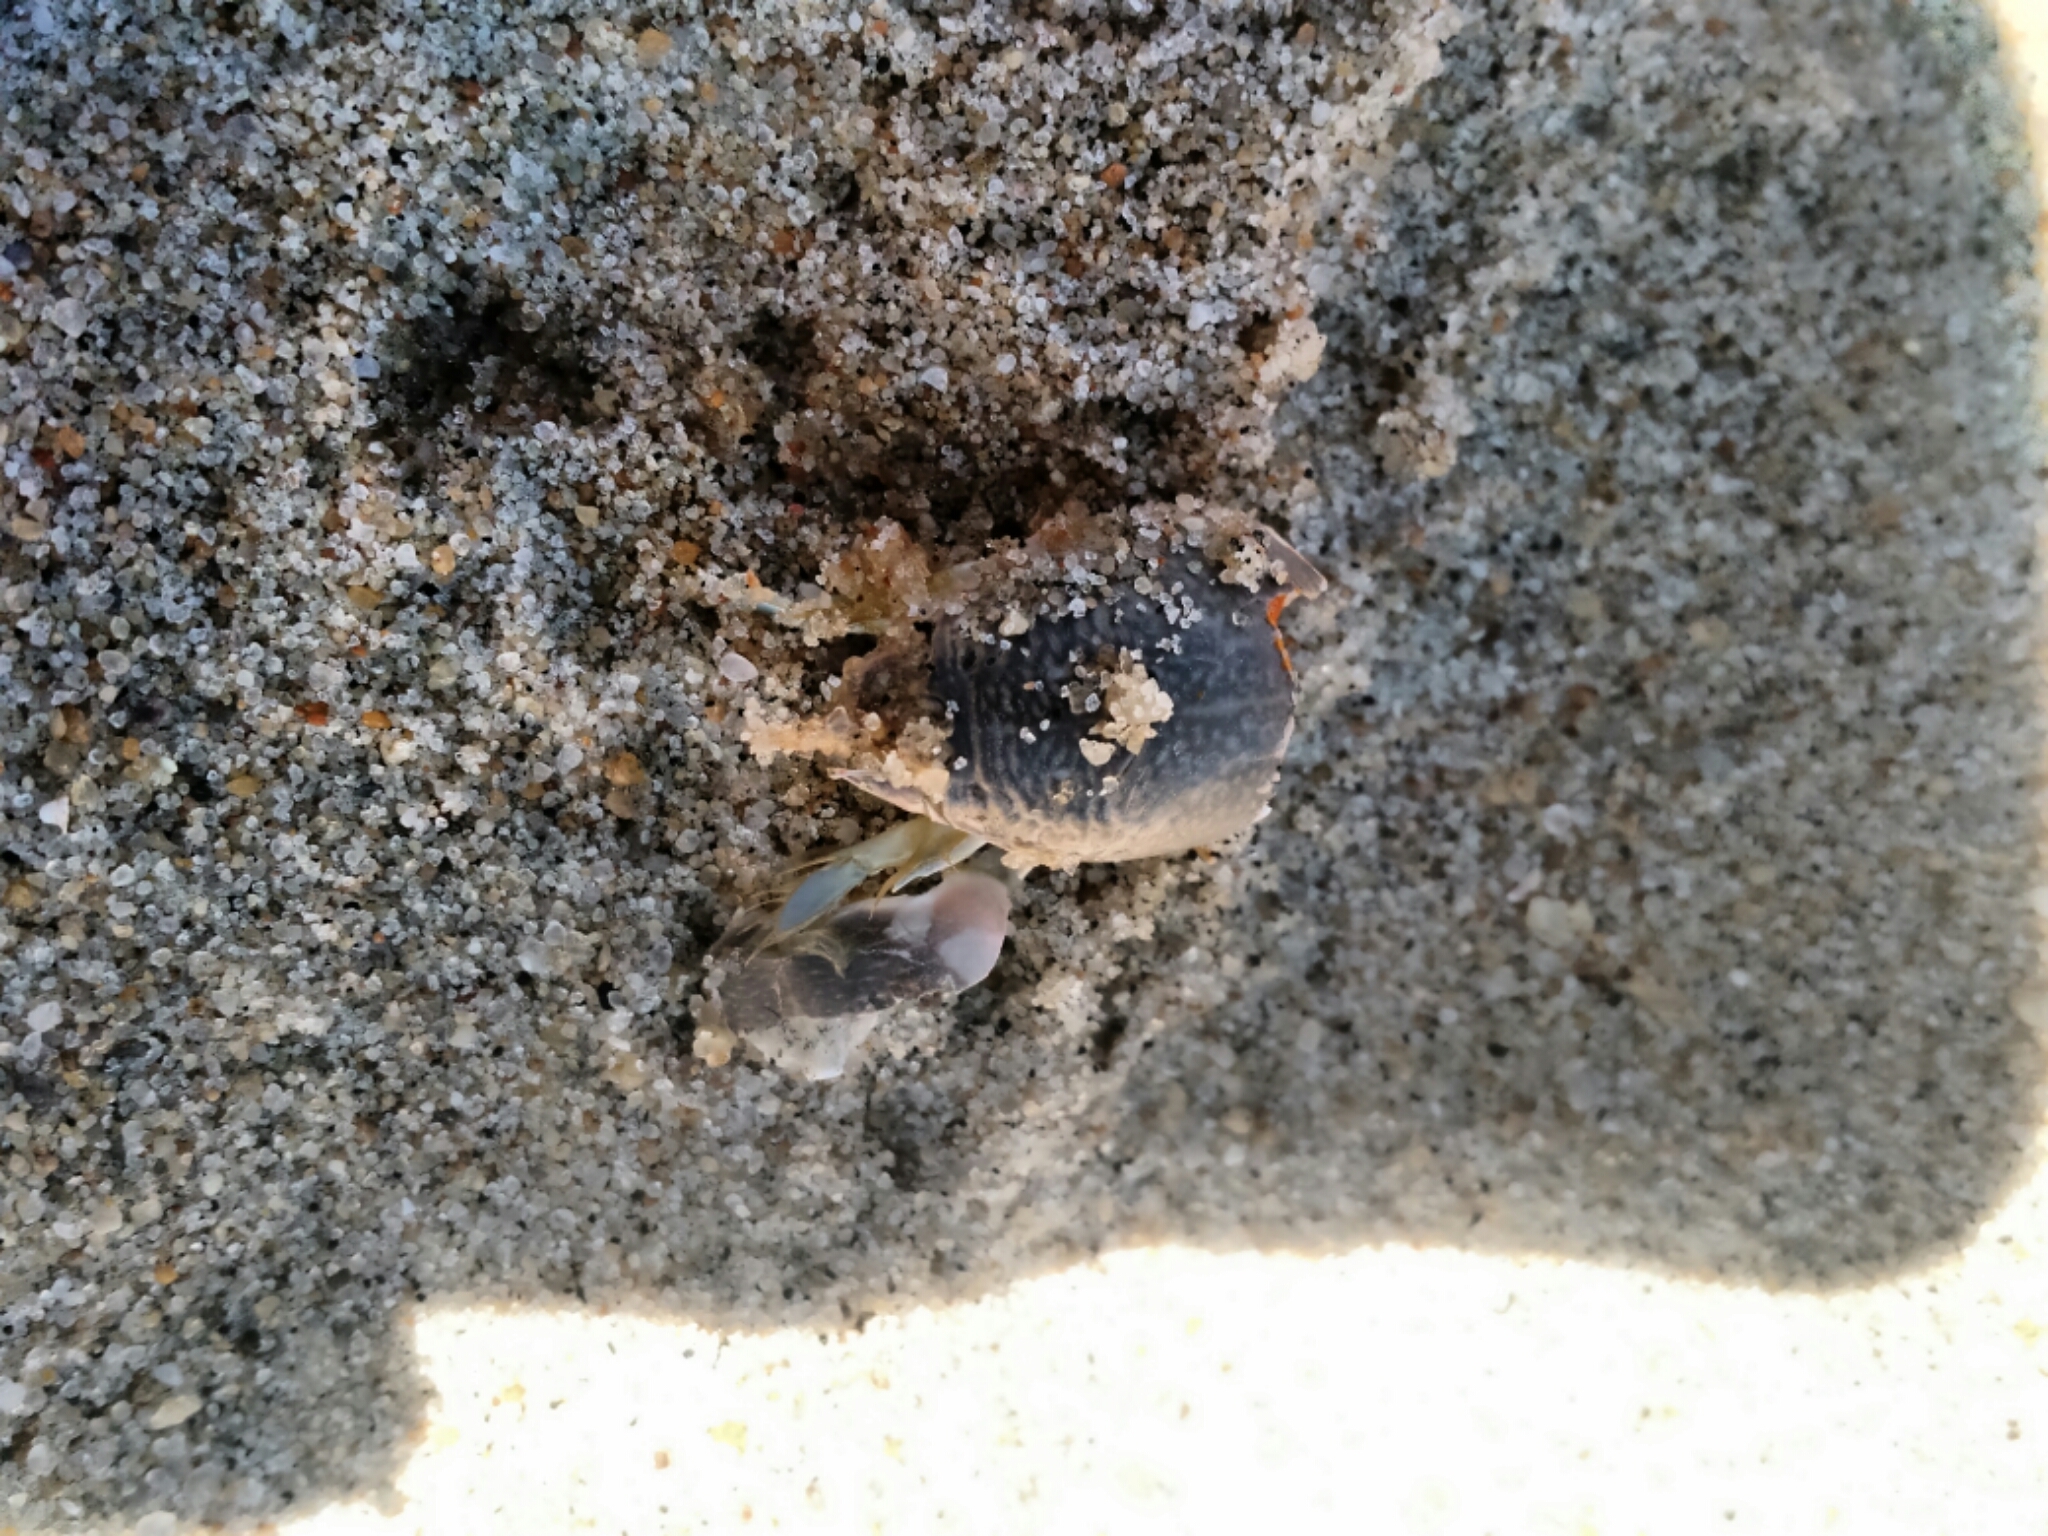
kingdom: Animalia
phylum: Arthropoda
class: Malacostraca
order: Decapoda
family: Hippidae
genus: Emerita
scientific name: Emerita talpoida
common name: Atlantic sand crab
